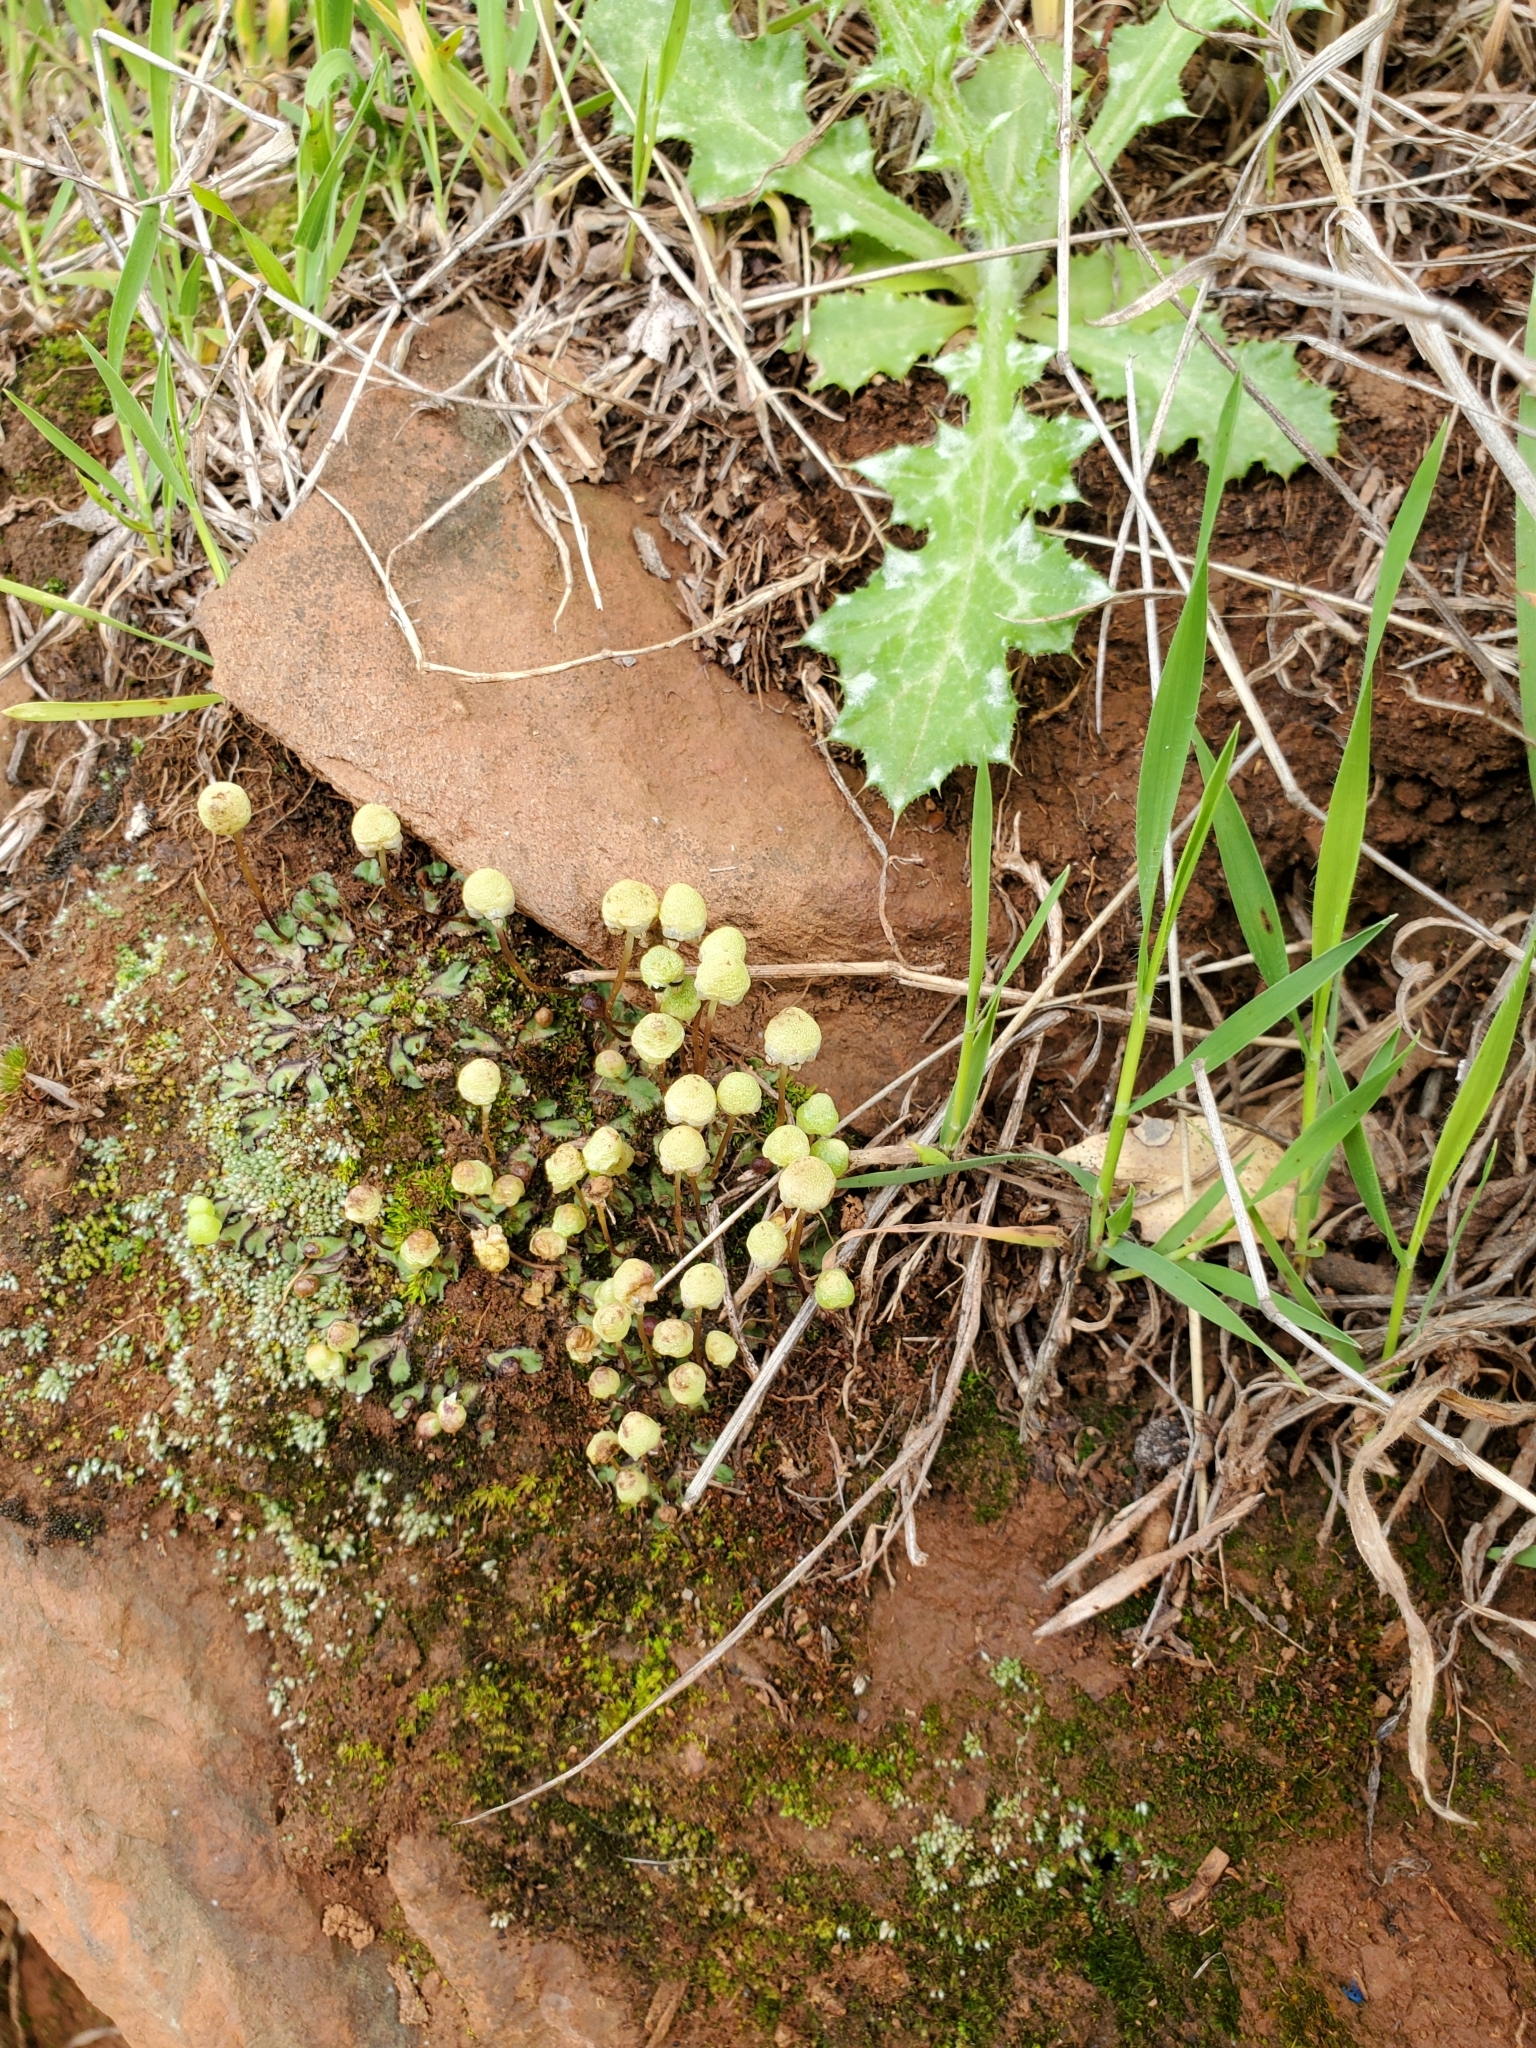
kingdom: Plantae
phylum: Marchantiophyta
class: Marchantiopsida
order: Marchantiales
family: Aytoniaceae
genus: Asterella
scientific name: Asterella palmeri
